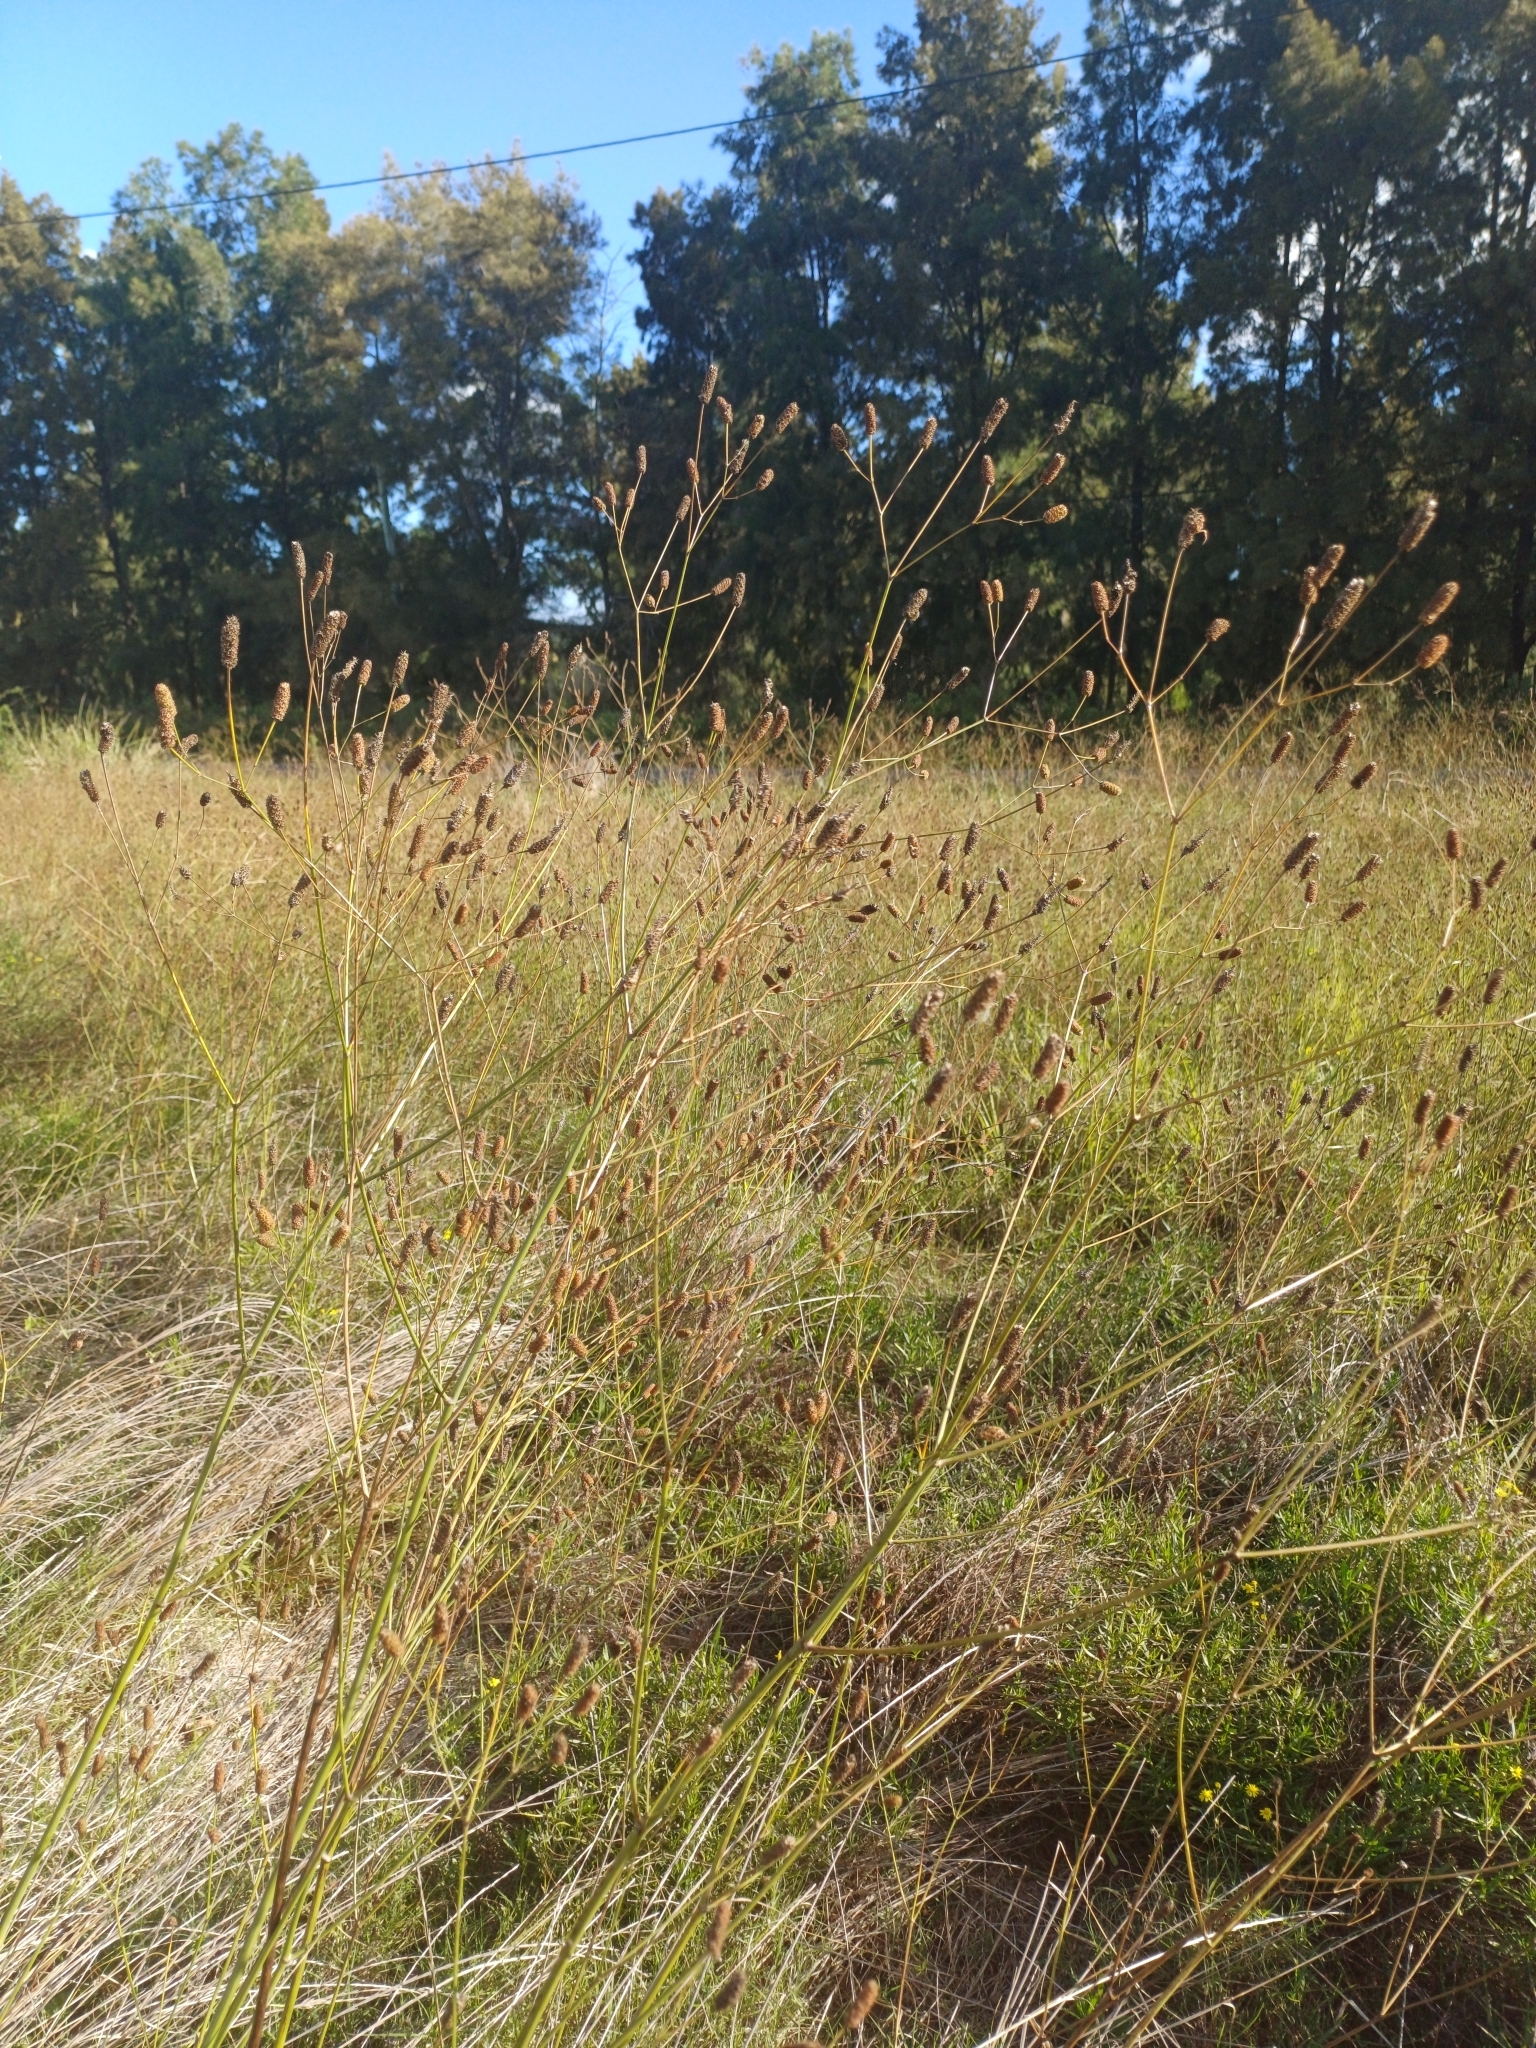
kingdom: Plantae
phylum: Tracheophyta
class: Magnoliopsida
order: Apiales
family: Apiaceae
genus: Eryngium
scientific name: Eryngium ebracteatum
